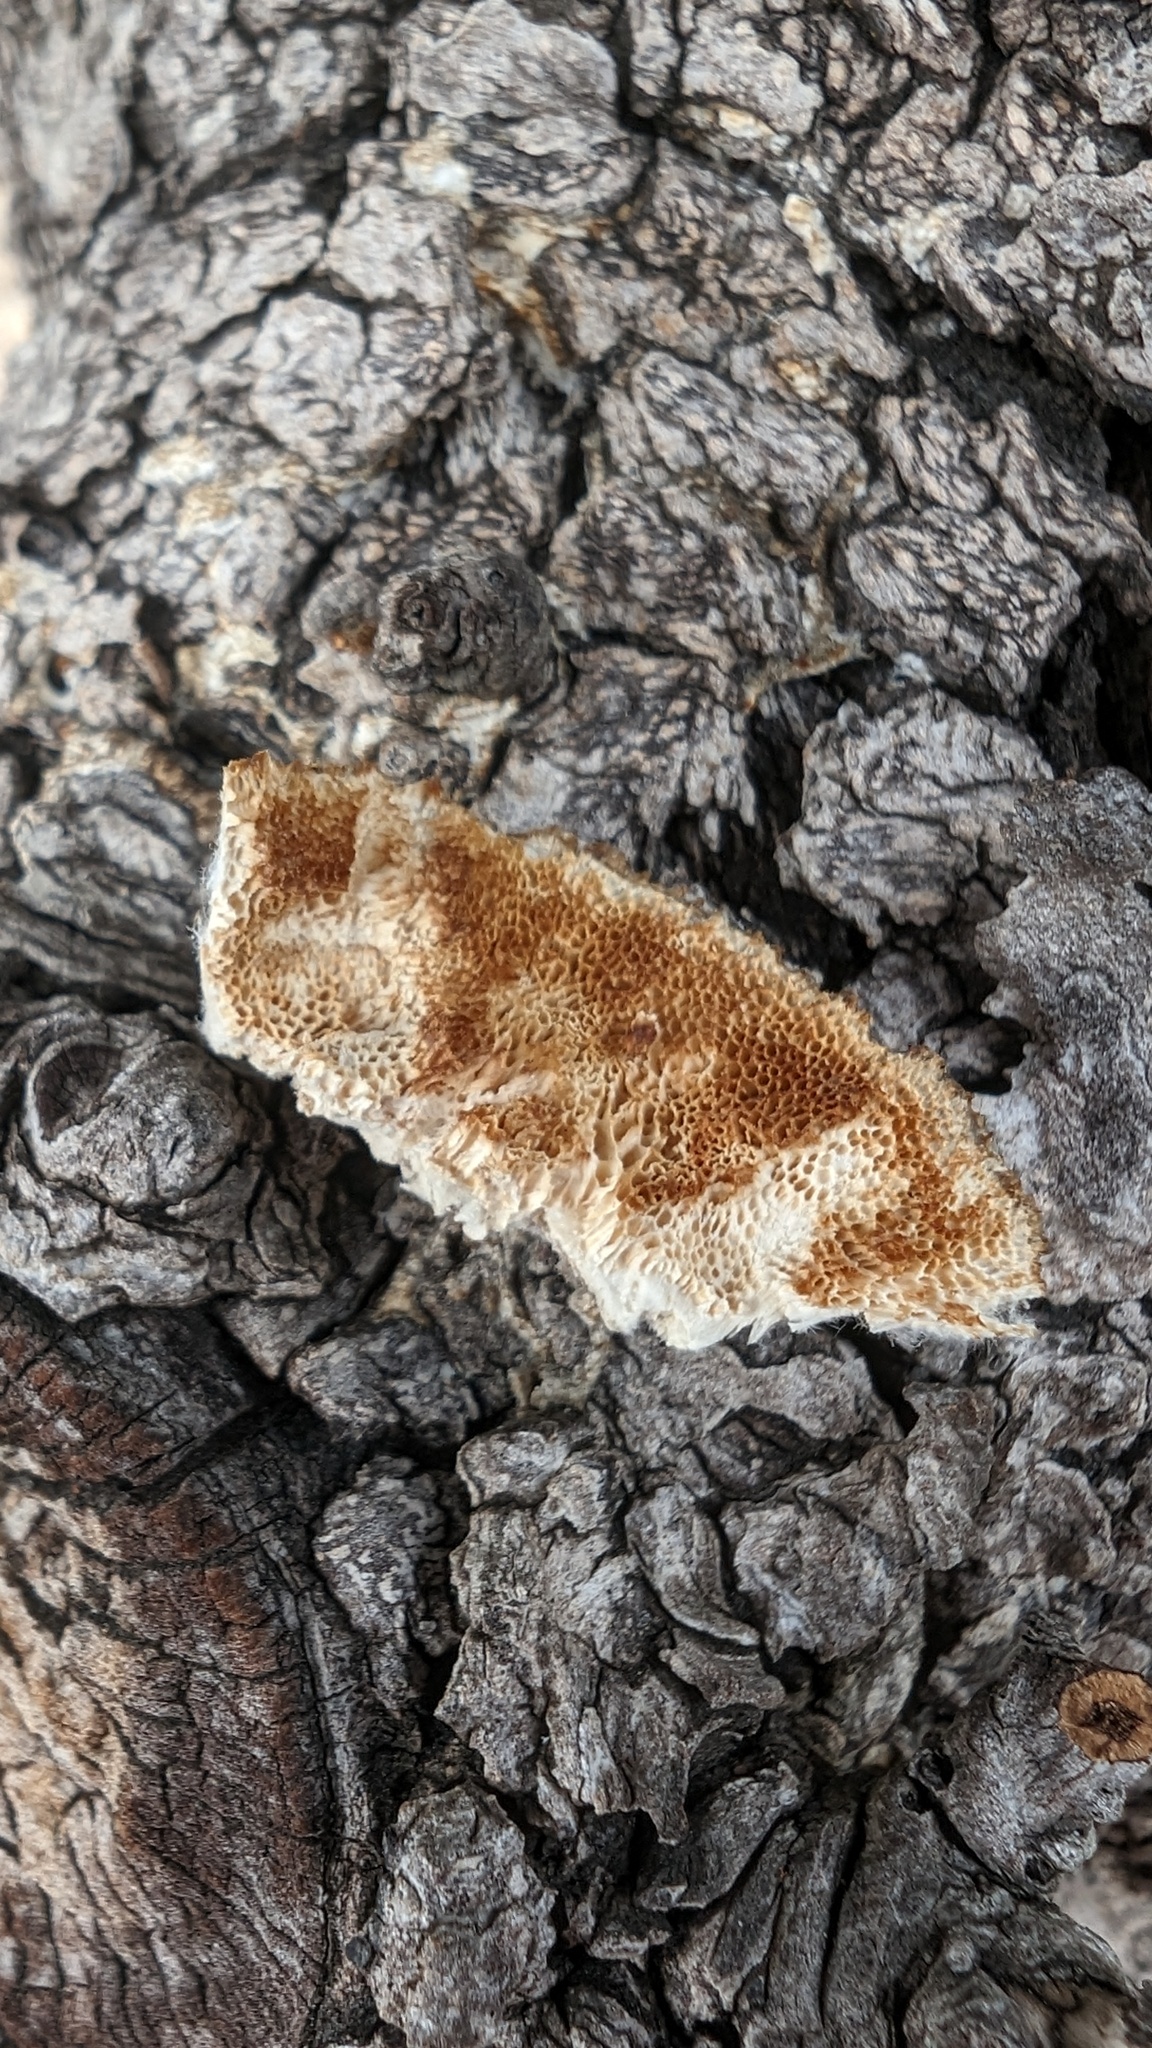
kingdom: Fungi
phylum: Basidiomycota
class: Agaricomycetes
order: Polyporales
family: Polyporaceae
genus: Trametes
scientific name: Trametes hirsuta
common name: Hairy bracket
